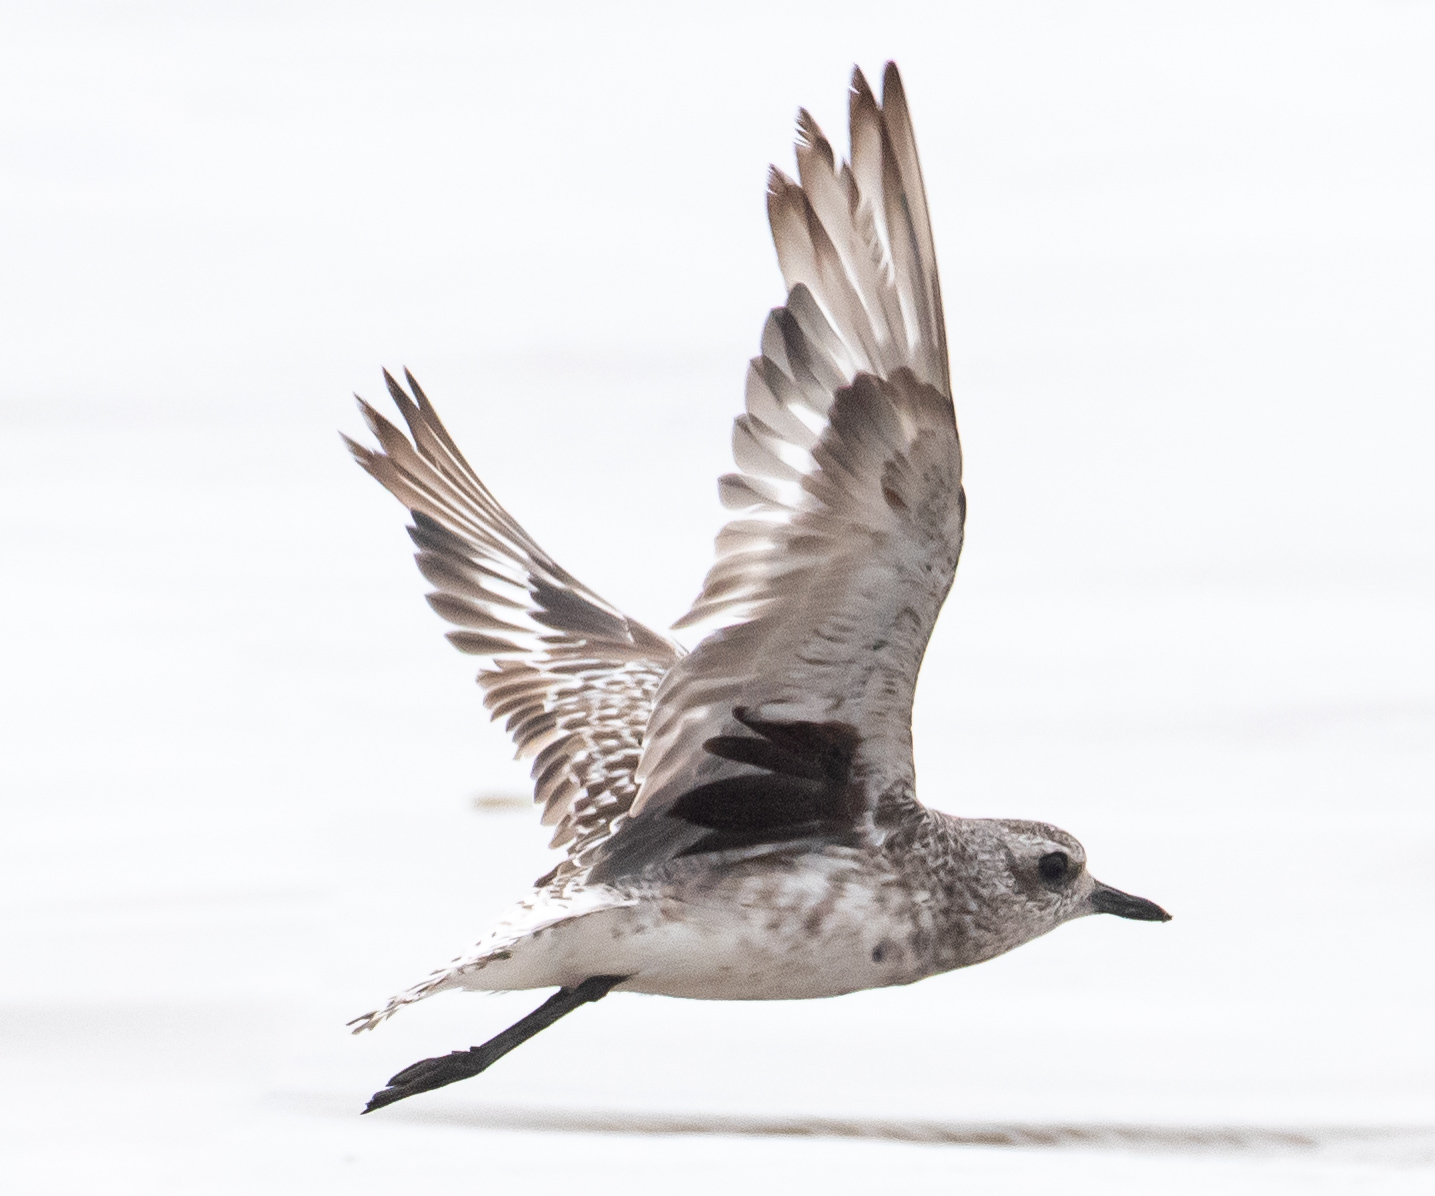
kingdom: Animalia
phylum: Chordata
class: Aves
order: Charadriiformes
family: Charadriidae
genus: Pluvialis
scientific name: Pluvialis squatarola
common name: Grey plover
